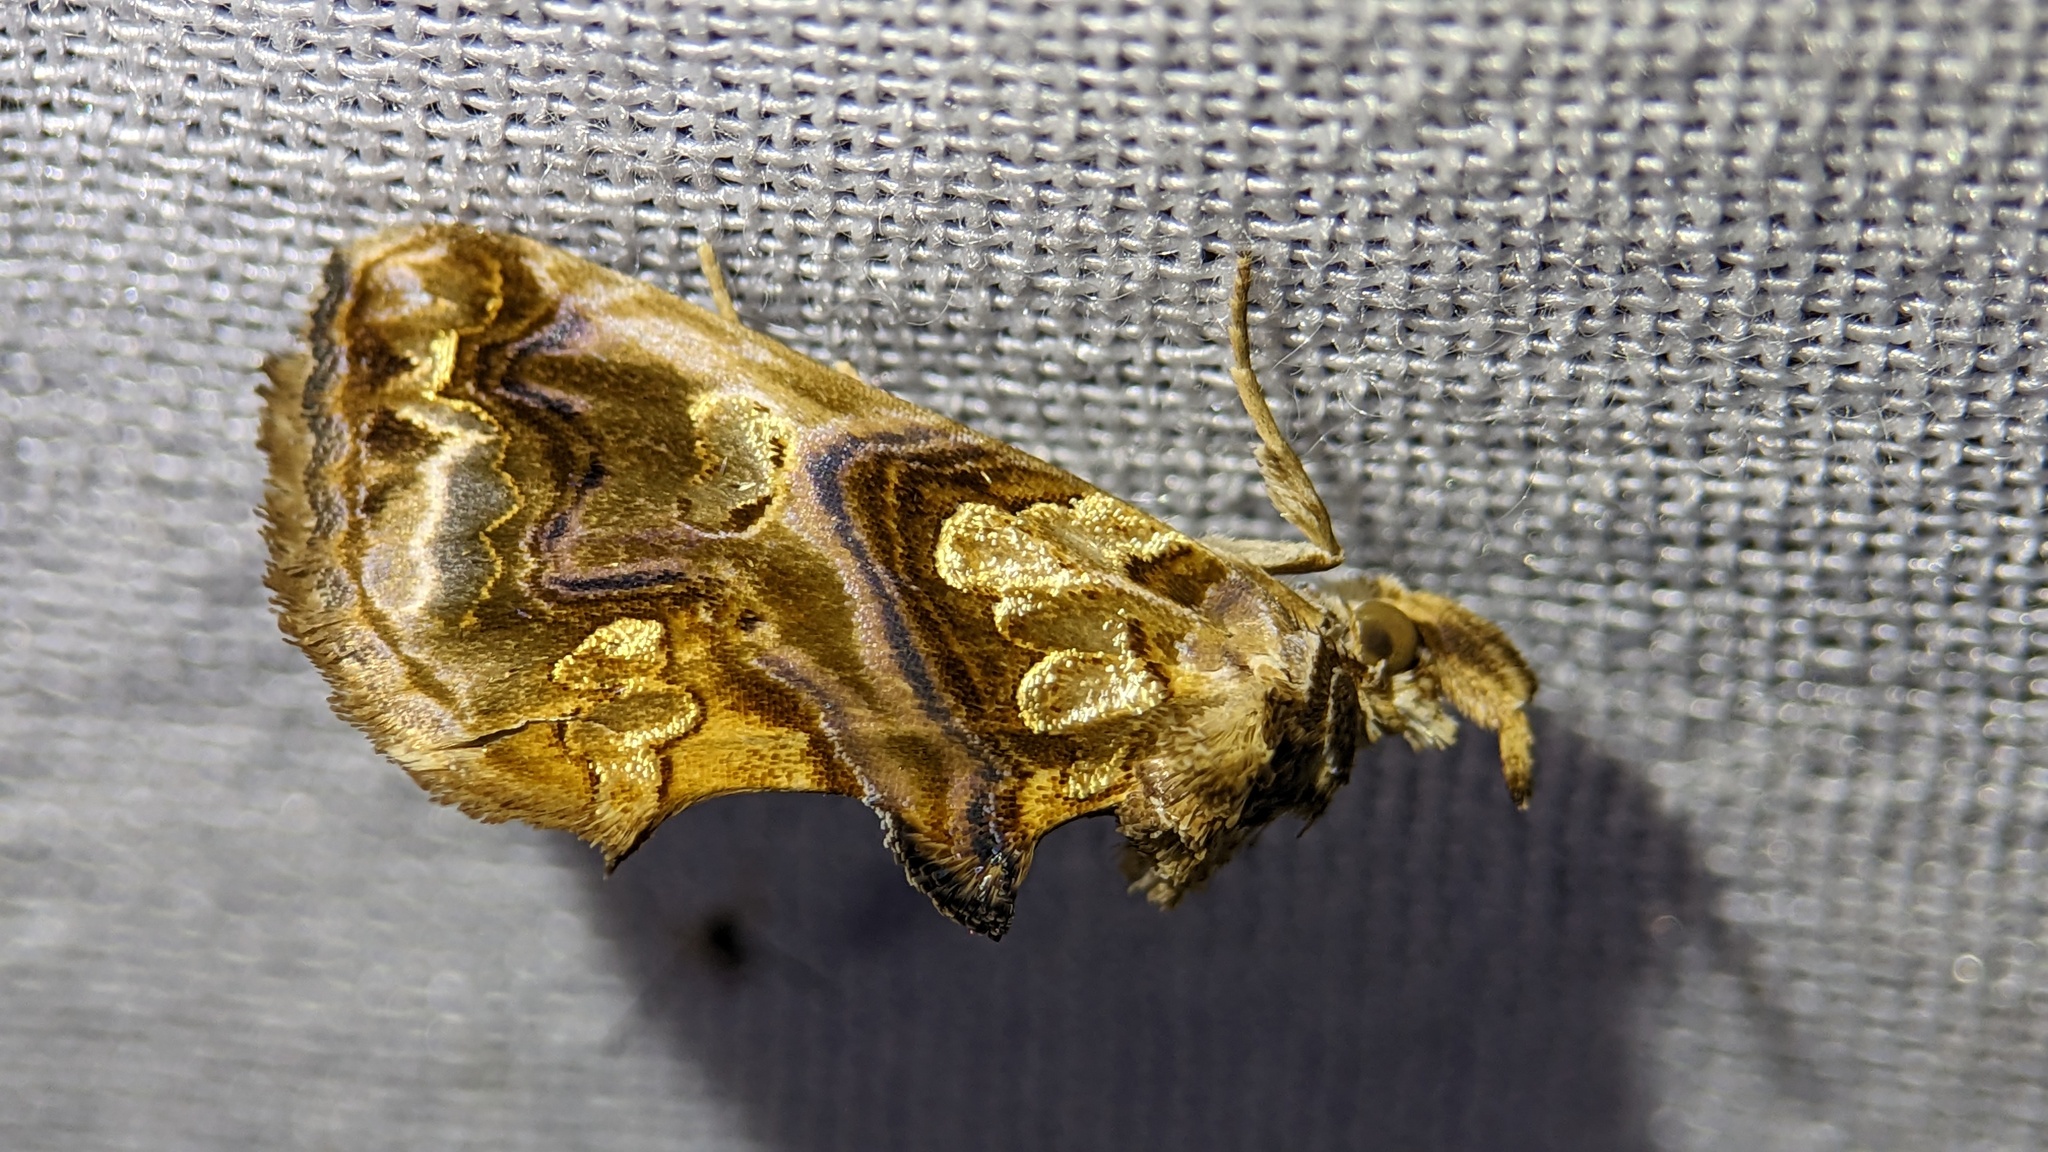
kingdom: Animalia
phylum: Arthropoda
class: Insecta
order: Lepidoptera
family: Erebidae
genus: Plusiodonta
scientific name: Plusiodonta compressipalpis
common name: Moonseed moth
